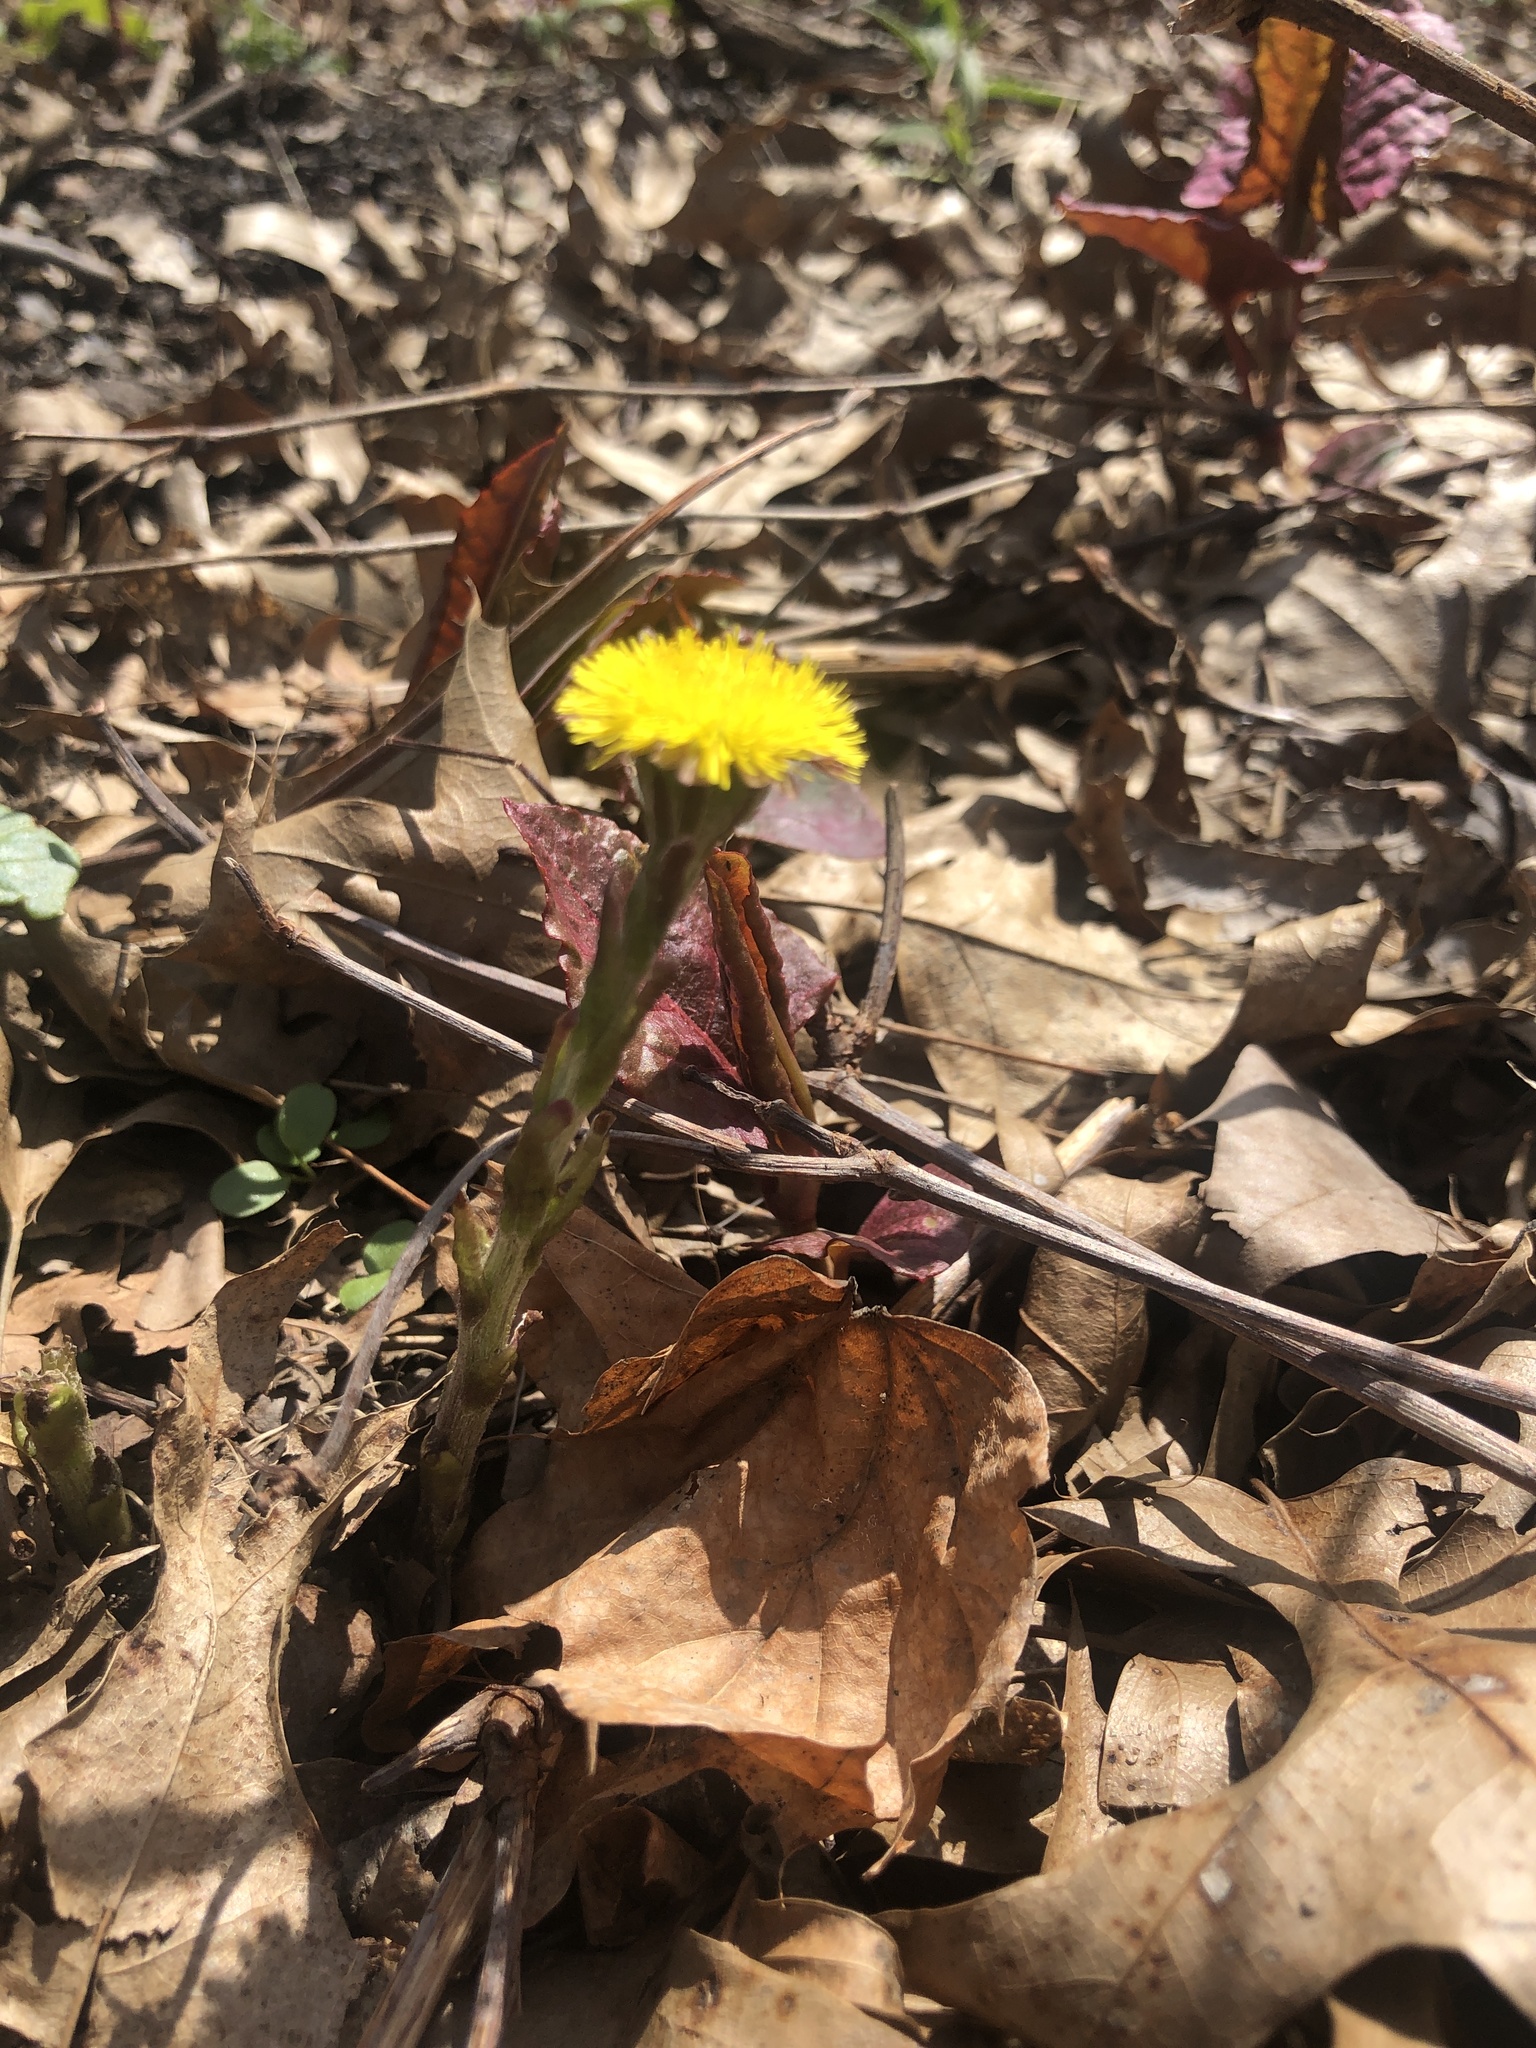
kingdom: Plantae
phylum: Tracheophyta
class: Magnoliopsida
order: Asterales
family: Asteraceae
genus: Tussilago
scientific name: Tussilago farfara
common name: Coltsfoot
